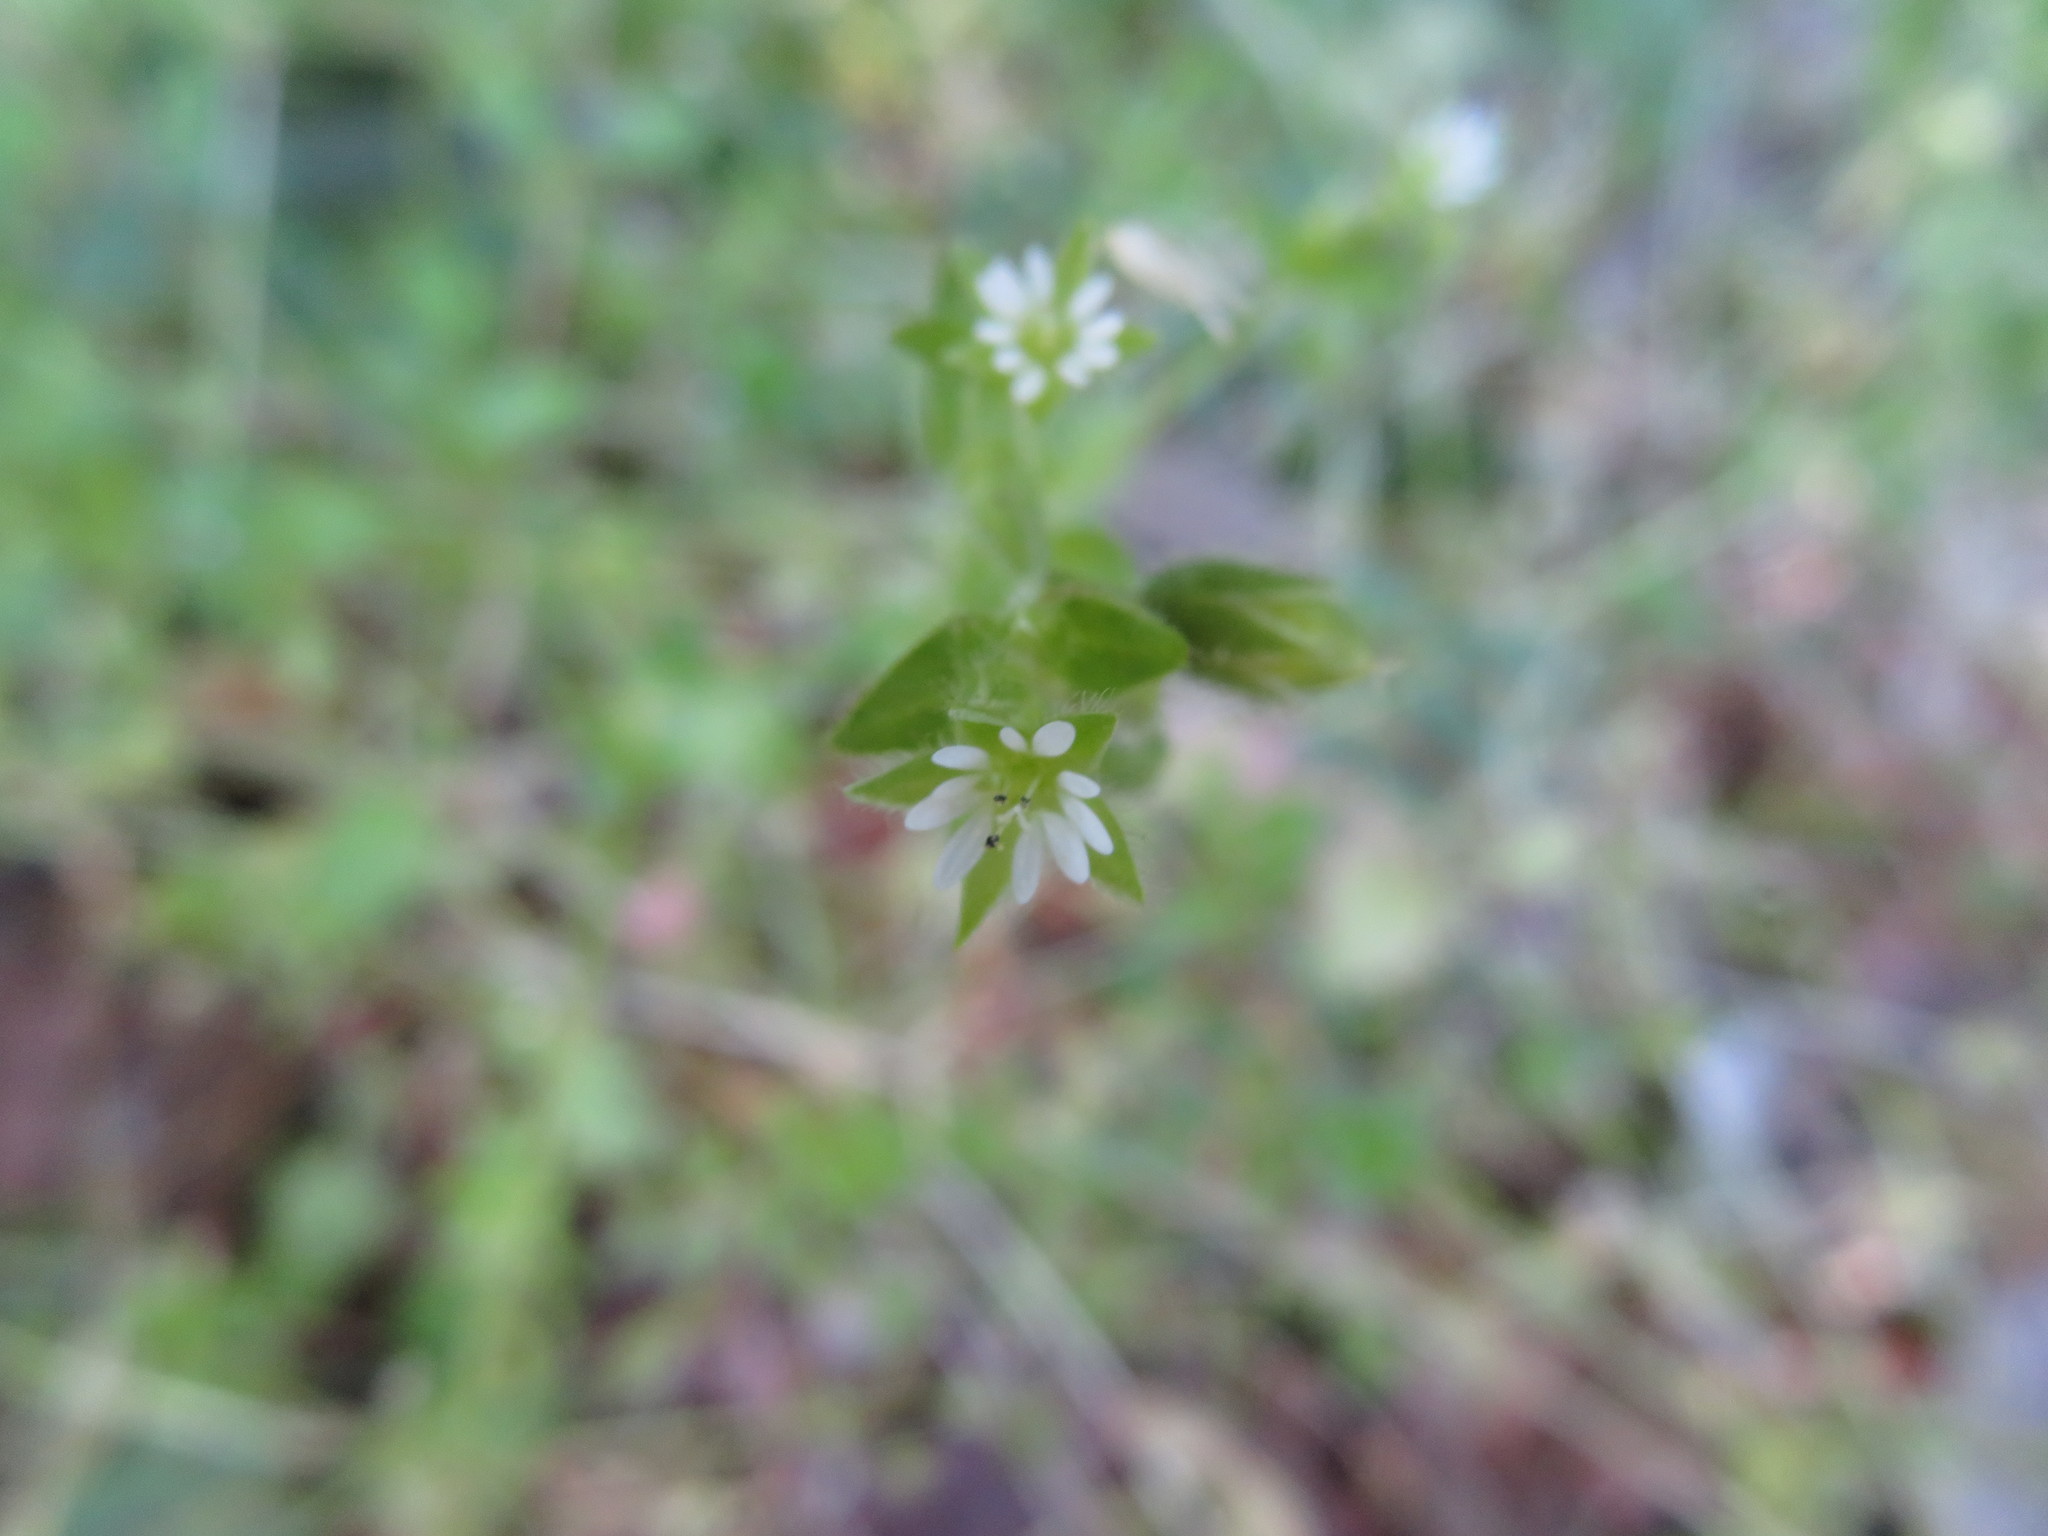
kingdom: Plantae
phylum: Tracheophyta
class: Magnoliopsida
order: Caryophyllales
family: Caryophyllaceae
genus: Stellaria
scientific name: Stellaria media
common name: Common chickweed
